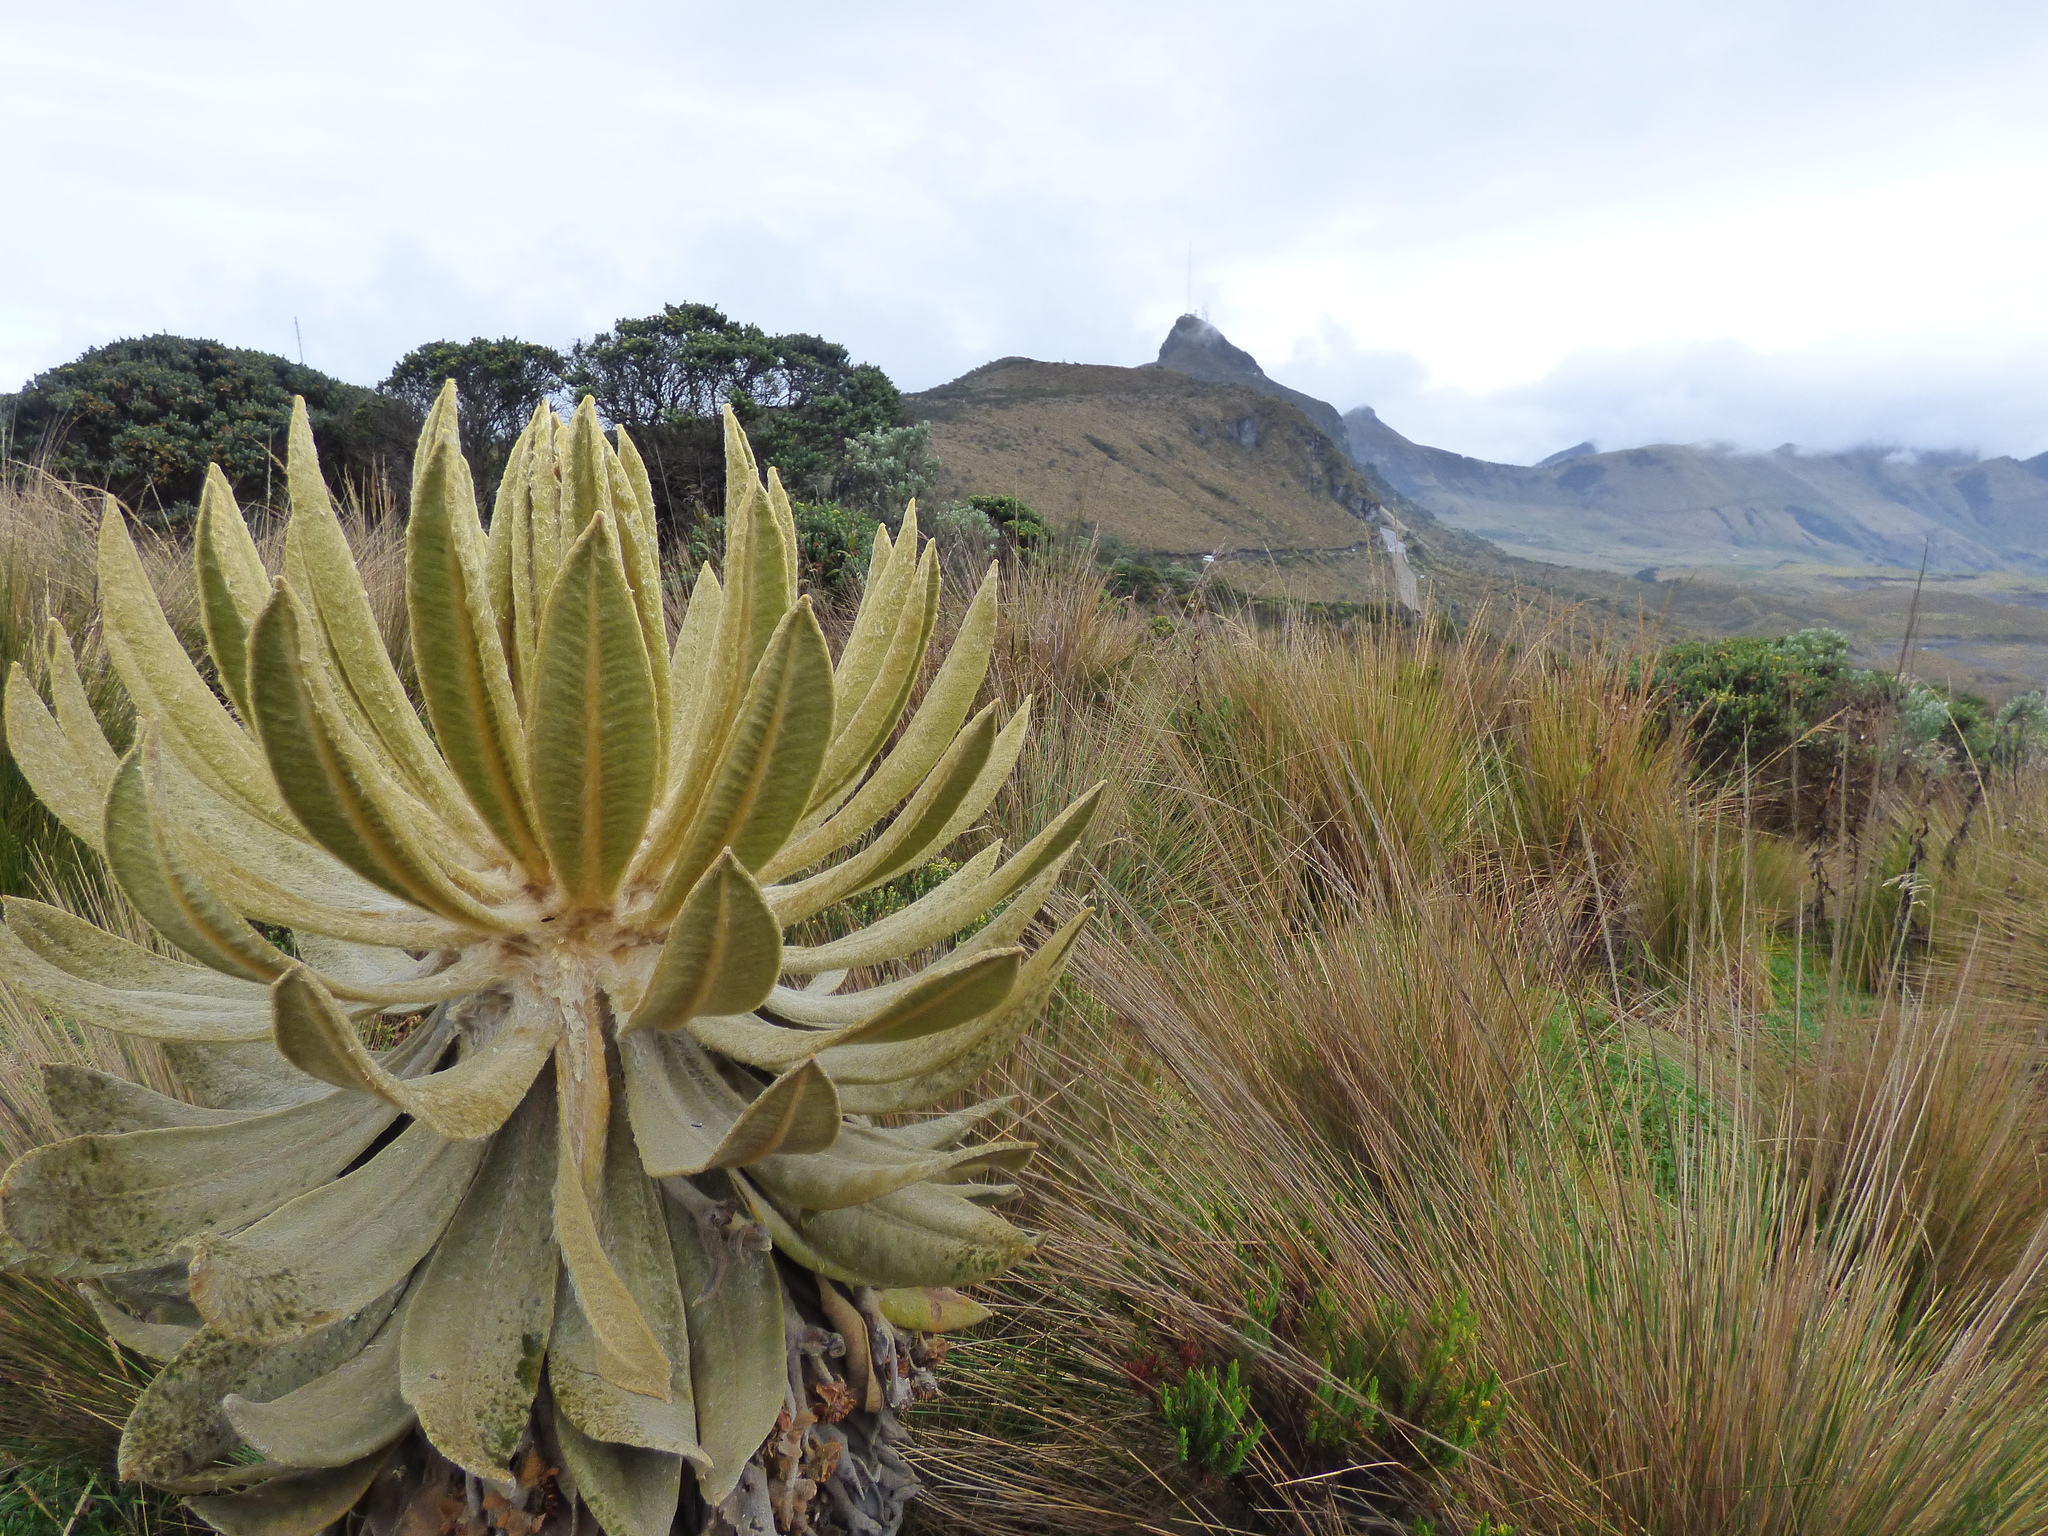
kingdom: Plantae
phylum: Tracheophyta
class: Magnoliopsida
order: Asterales
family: Asteraceae
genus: Espeletia
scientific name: Espeletia hartwegiana
